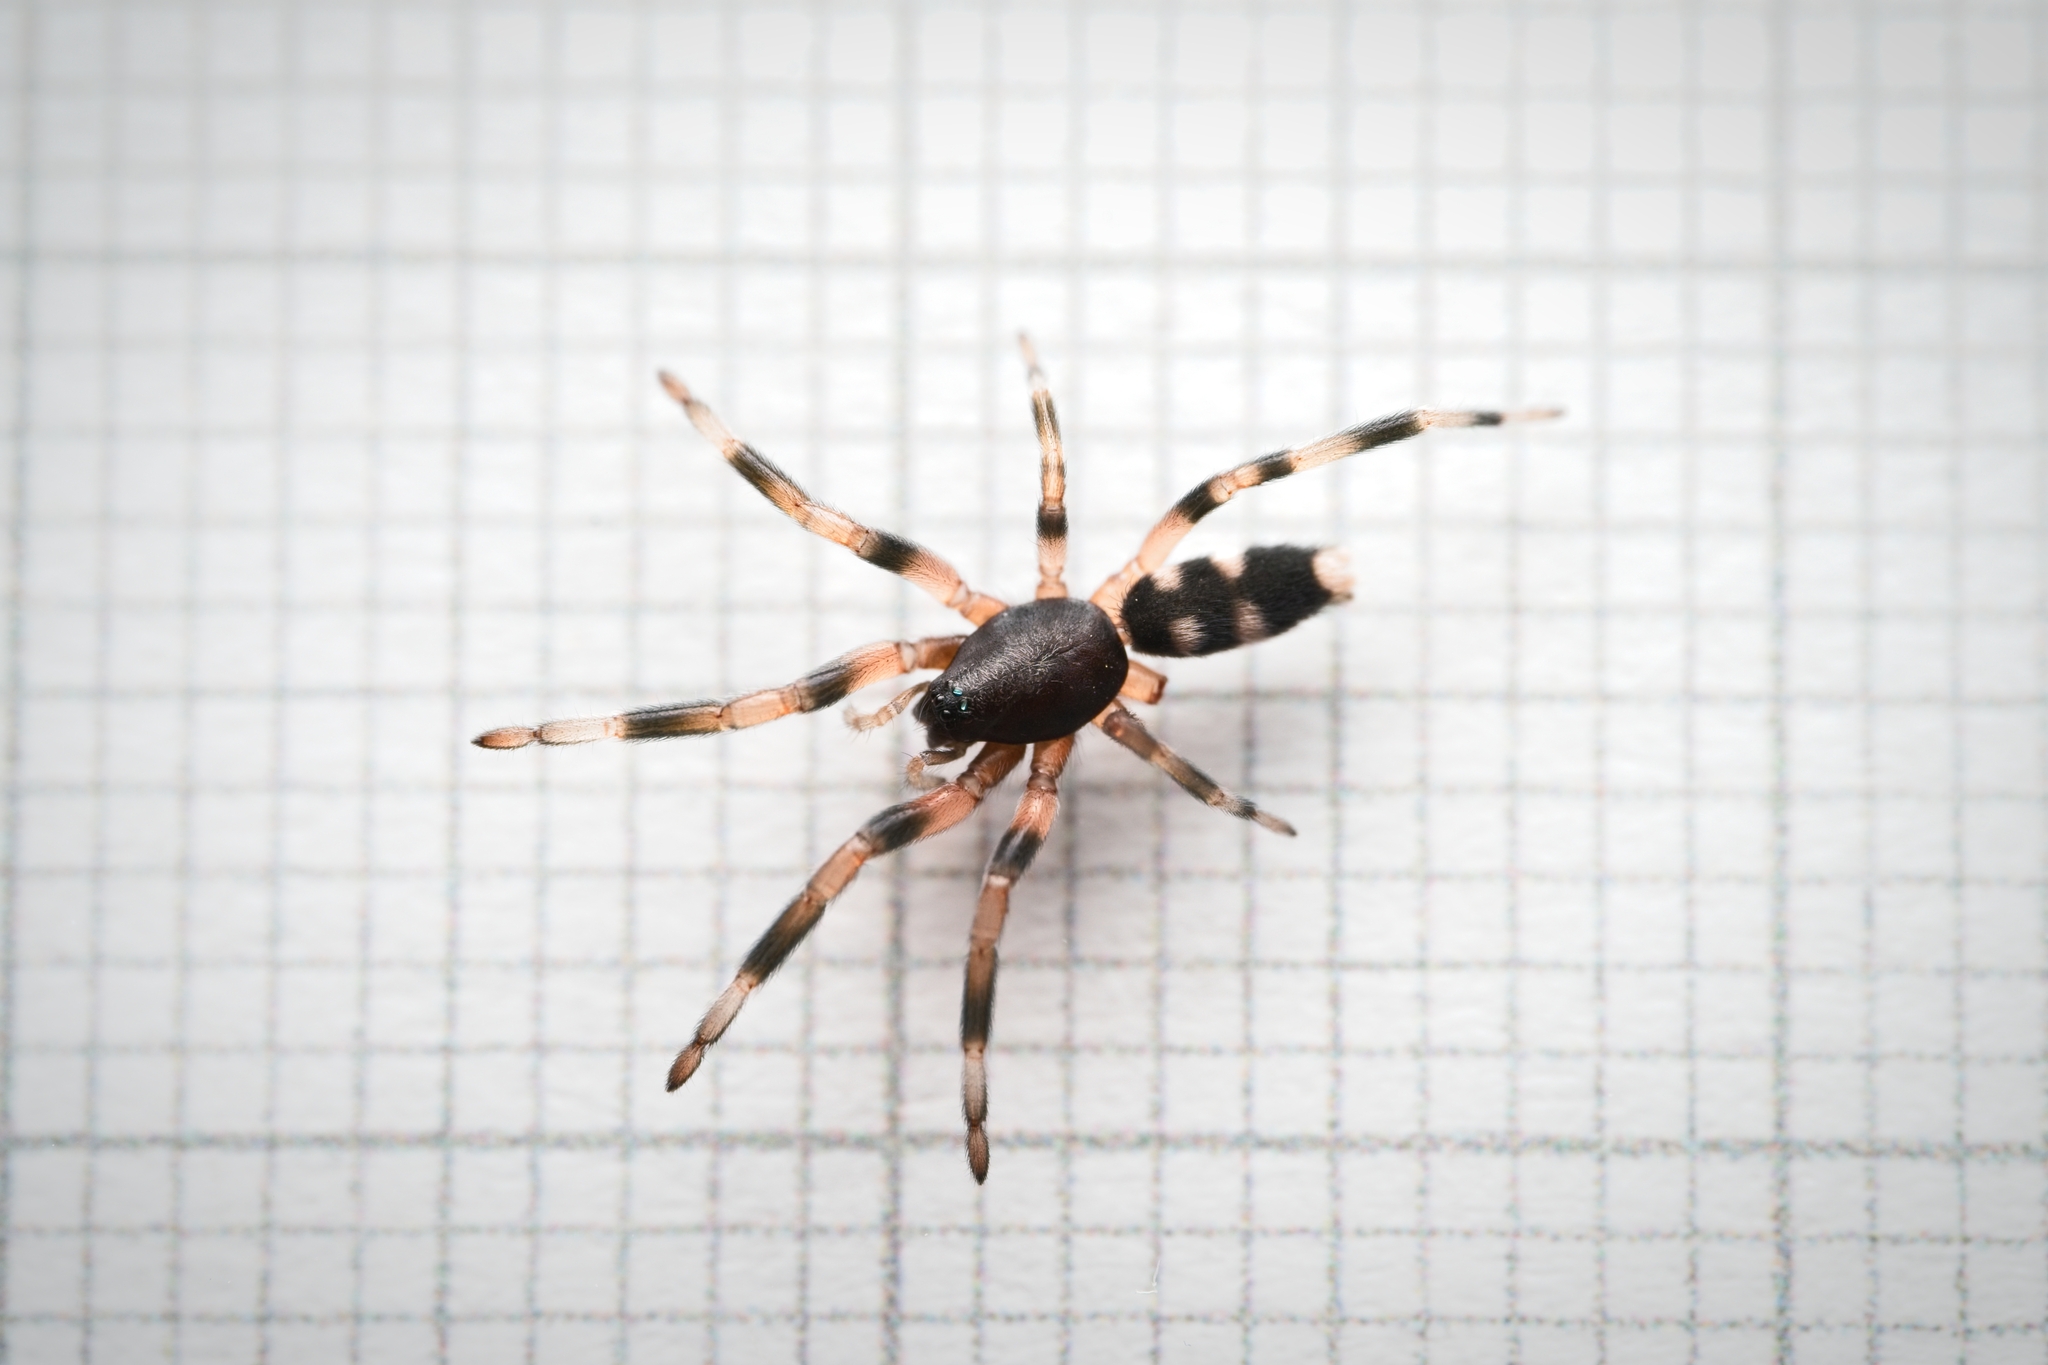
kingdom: Animalia
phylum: Arthropoda
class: Arachnida
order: Araneae
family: Lamponidae
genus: Lampona
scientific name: Lampona murina
